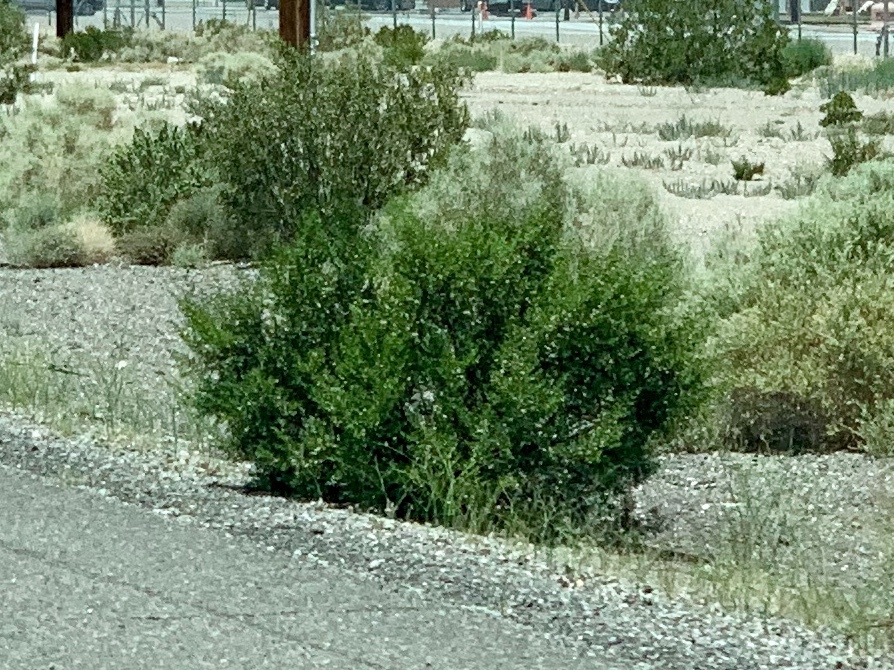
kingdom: Plantae
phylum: Tracheophyta
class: Magnoliopsida
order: Zygophyllales
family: Zygophyllaceae
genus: Larrea
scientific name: Larrea tridentata
